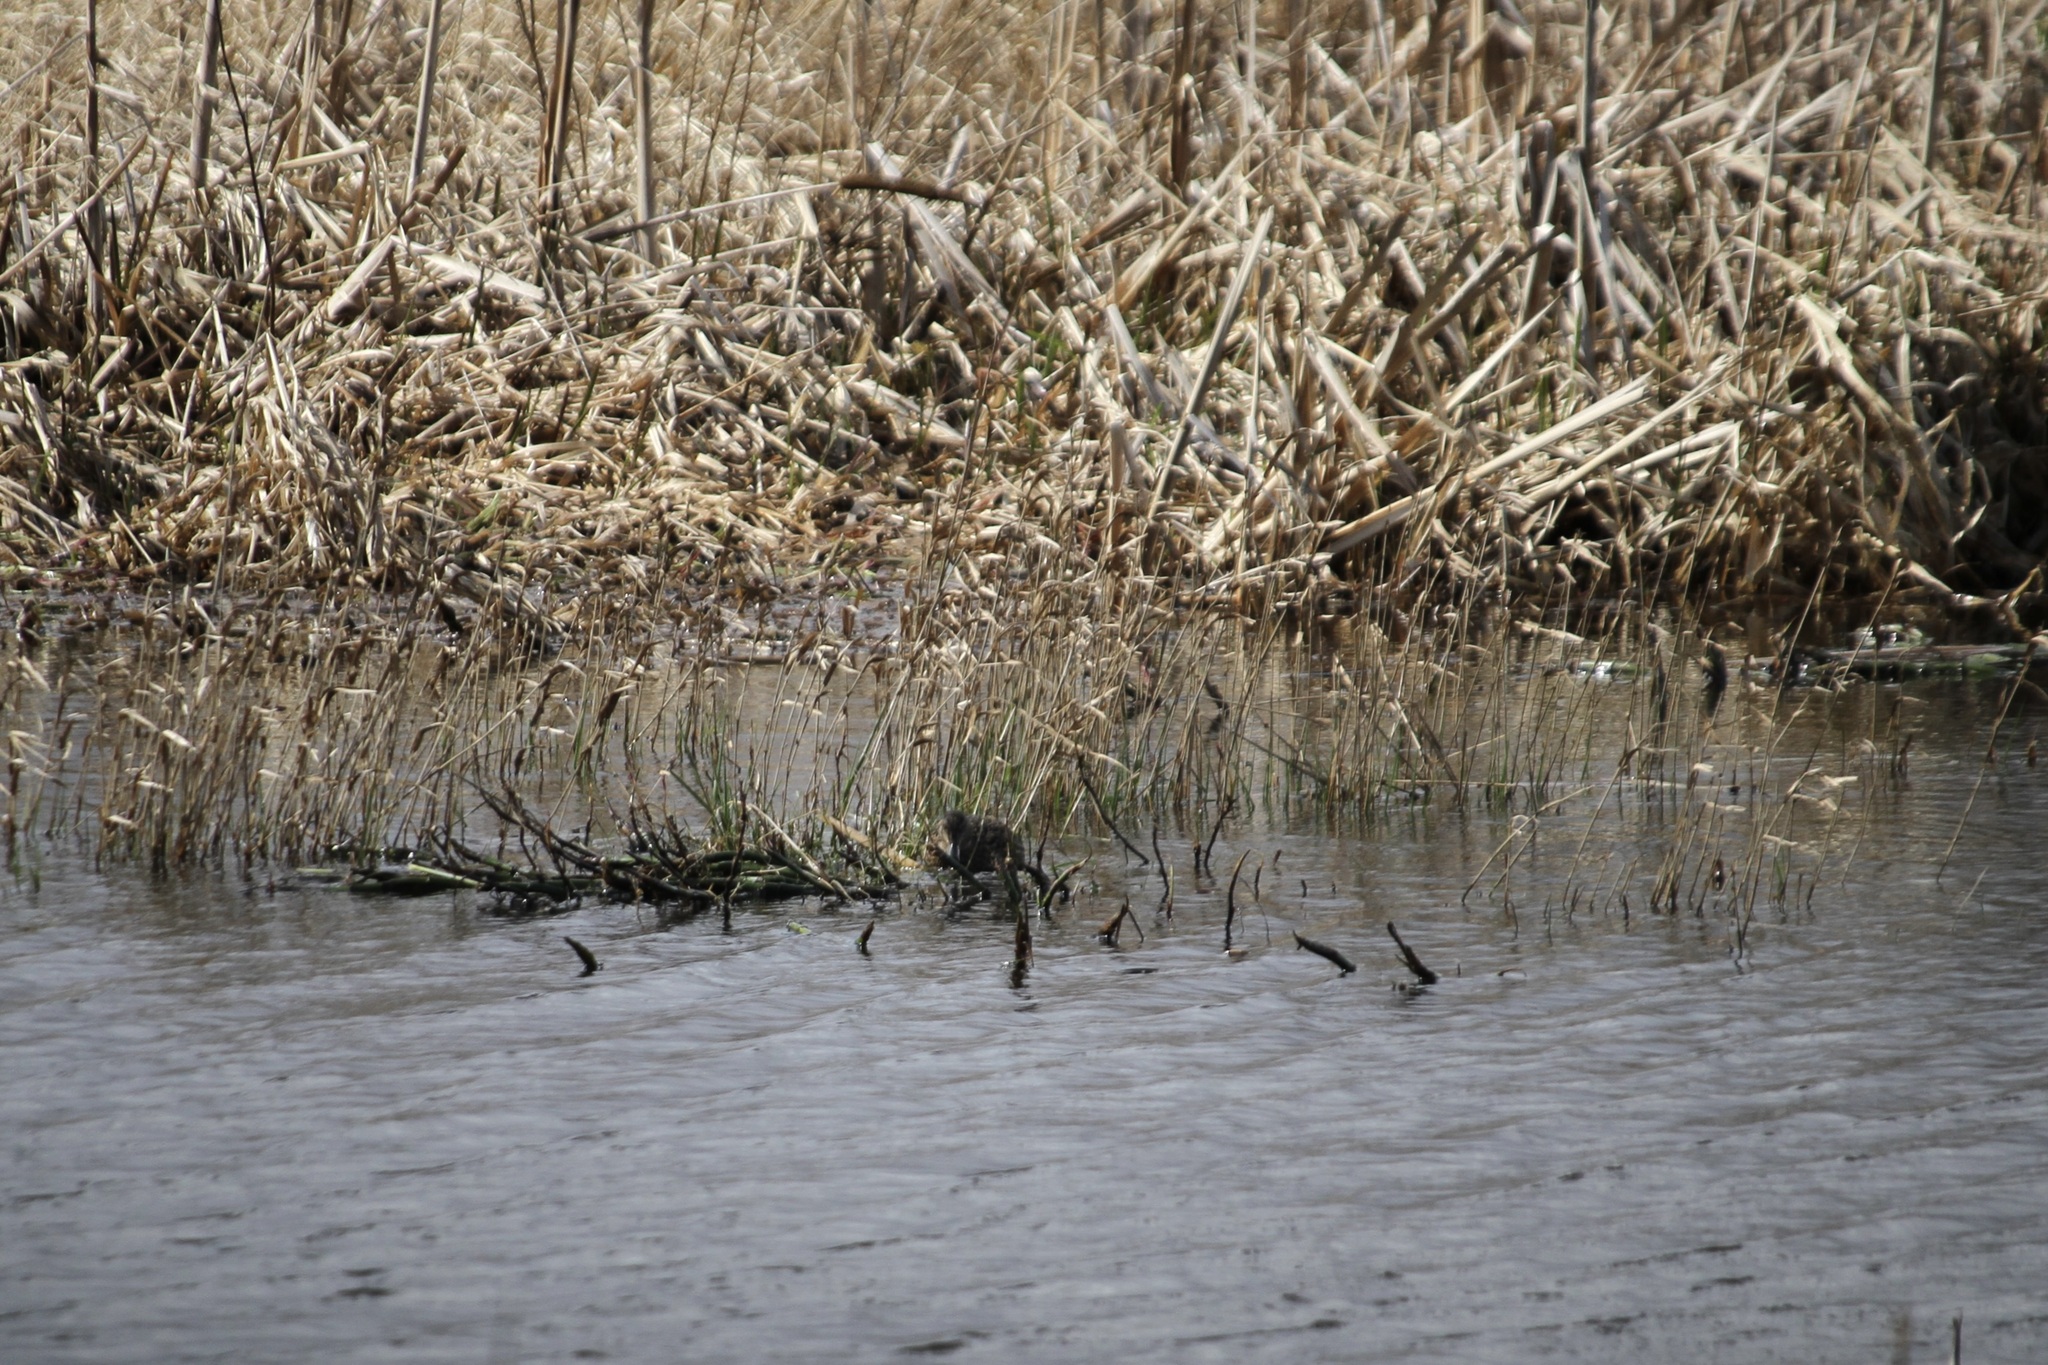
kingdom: Animalia
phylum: Chordata
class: Aves
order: Anseriformes
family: Anatidae
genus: Anas
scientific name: Anas platyrhynchos
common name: Mallard
